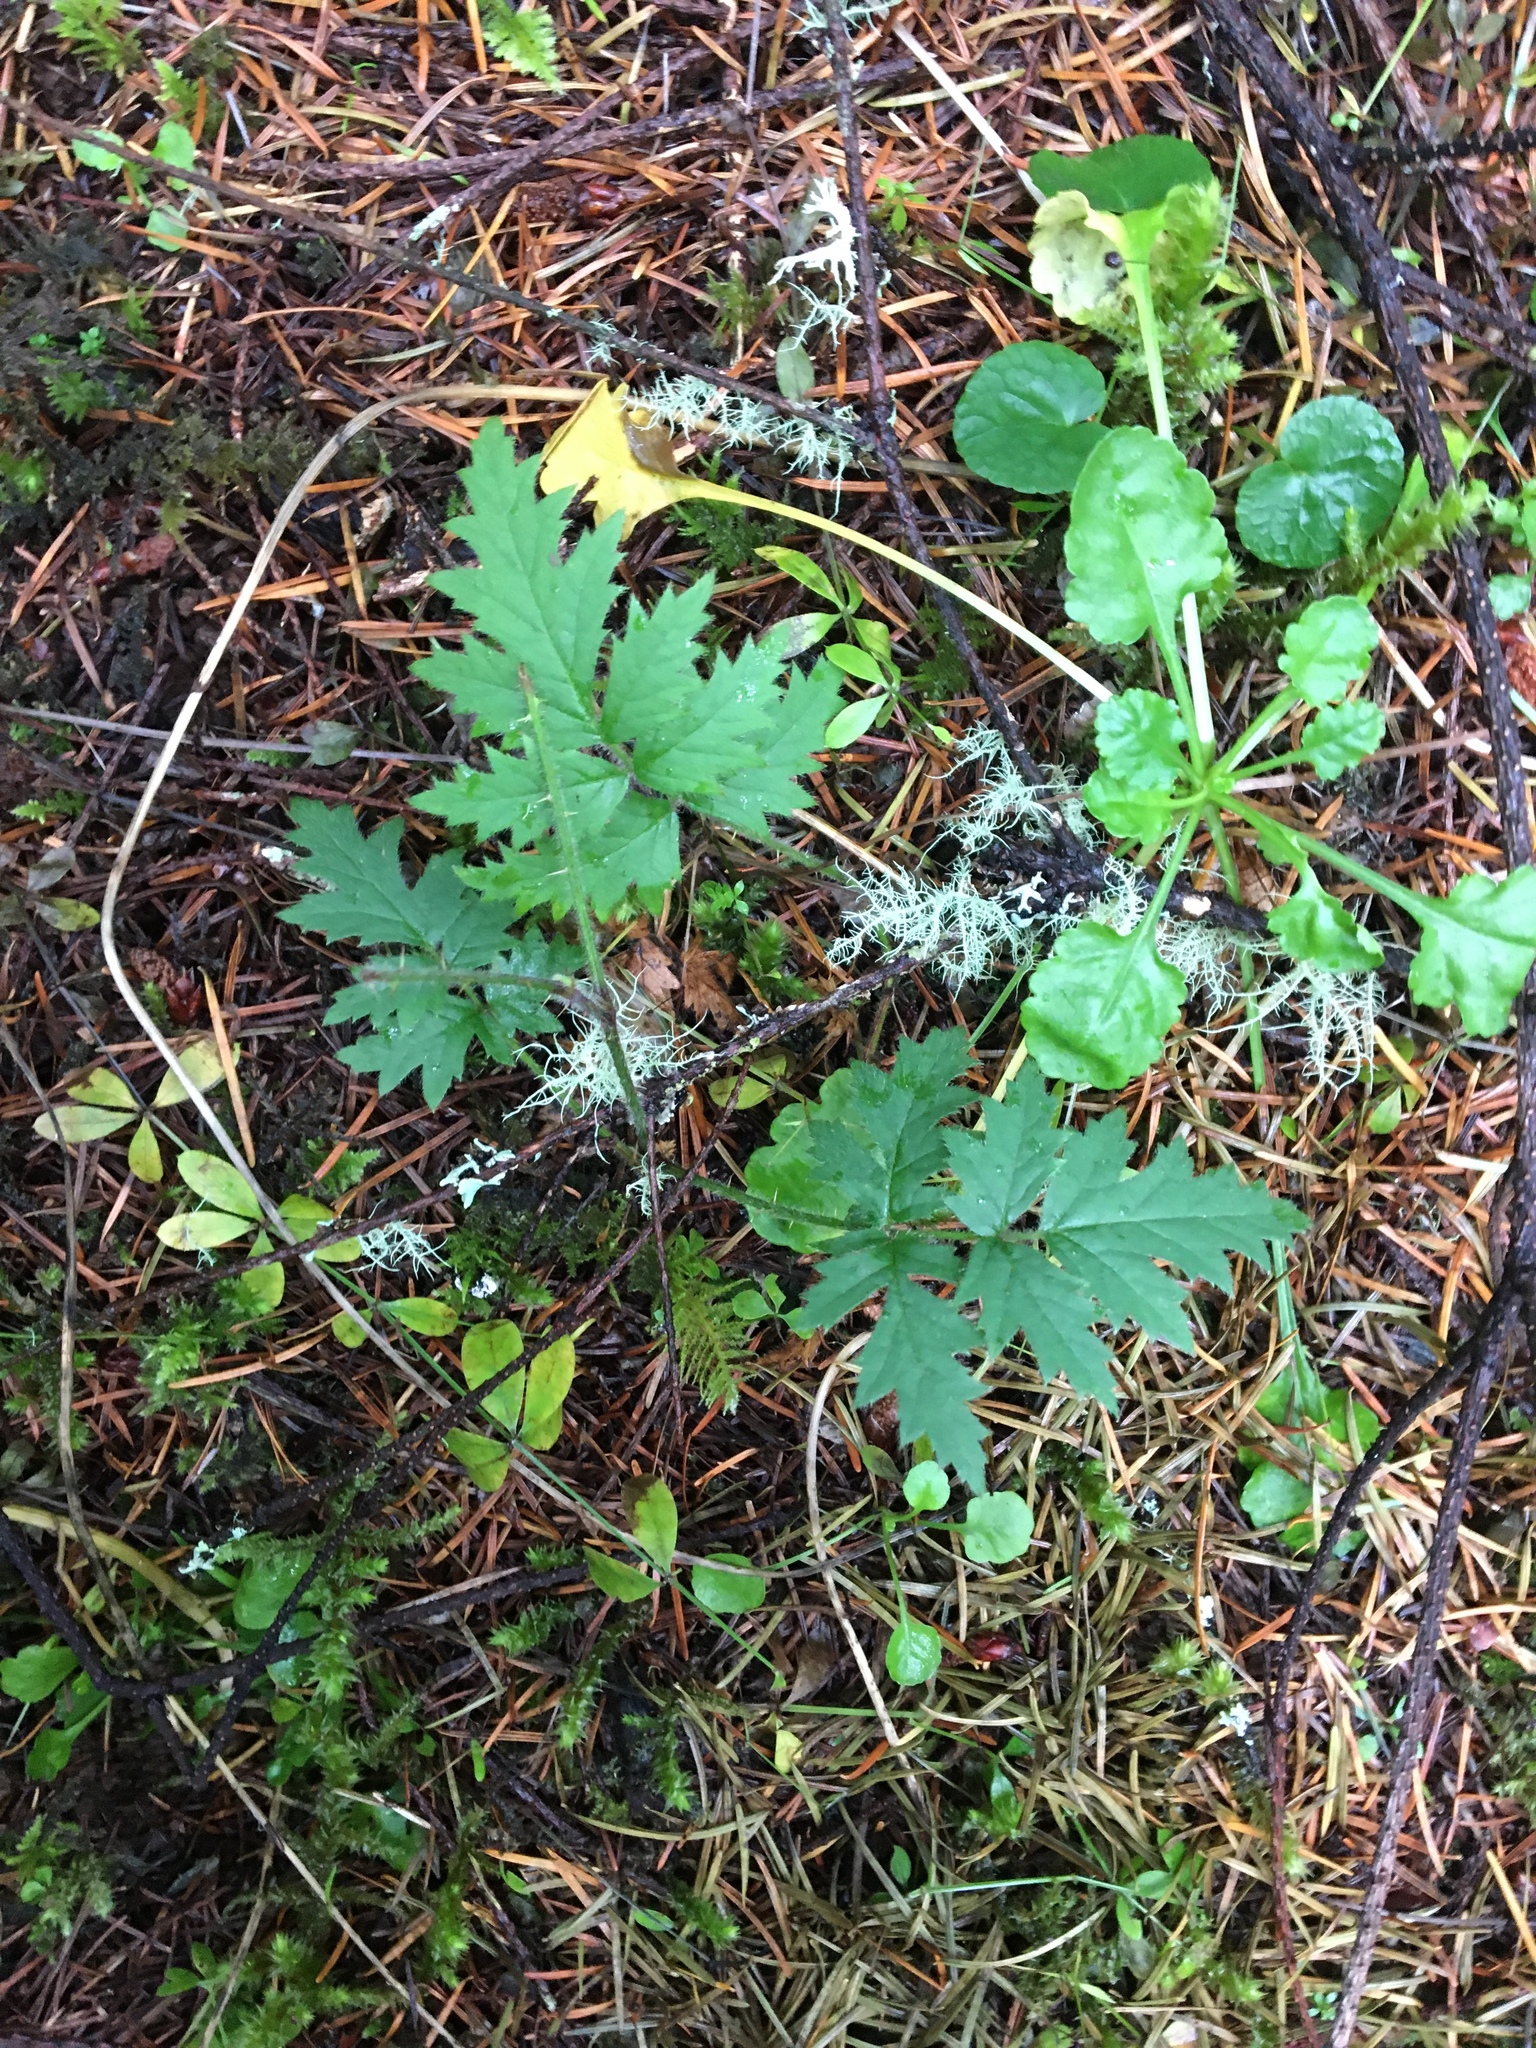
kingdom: Plantae
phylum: Tracheophyta
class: Magnoliopsida
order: Rosales
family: Rosaceae
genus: Rubus
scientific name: Rubus laciniatus
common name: Evergreen blackberry
